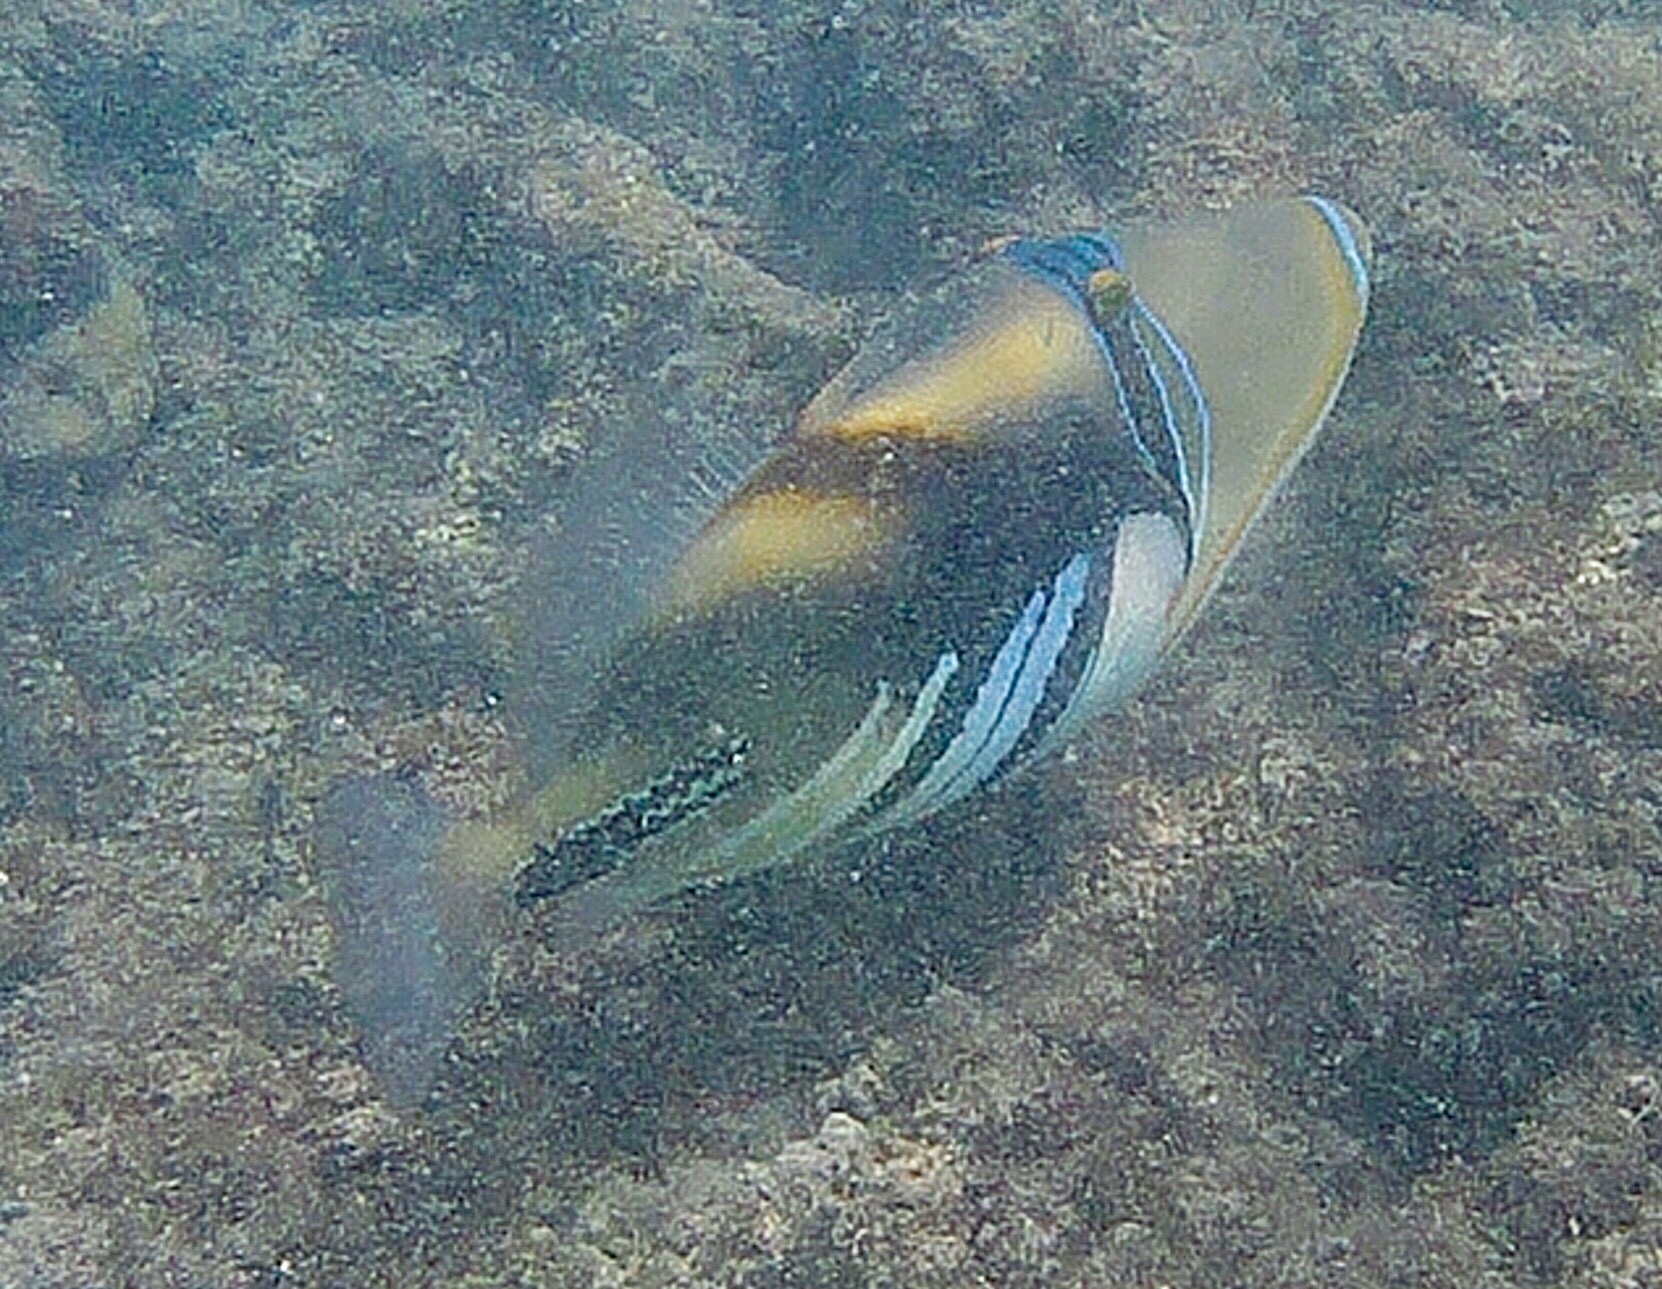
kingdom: Animalia
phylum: Chordata
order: Tetraodontiformes
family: Balistidae
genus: Rhinecanthus
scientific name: Rhinecanthus aculeatus
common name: White-banded triggerfish
